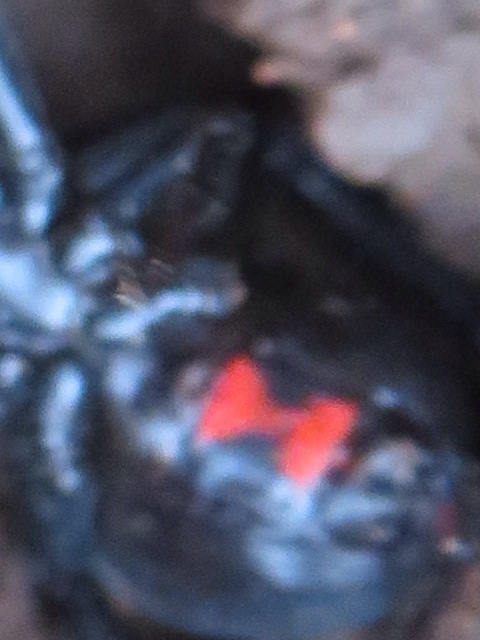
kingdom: Animalia
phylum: Arthropoda
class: Arachnida
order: Araneae
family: Theridiidae
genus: Latrodectus
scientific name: Latrodectus mactans
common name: Cobweb spiders
